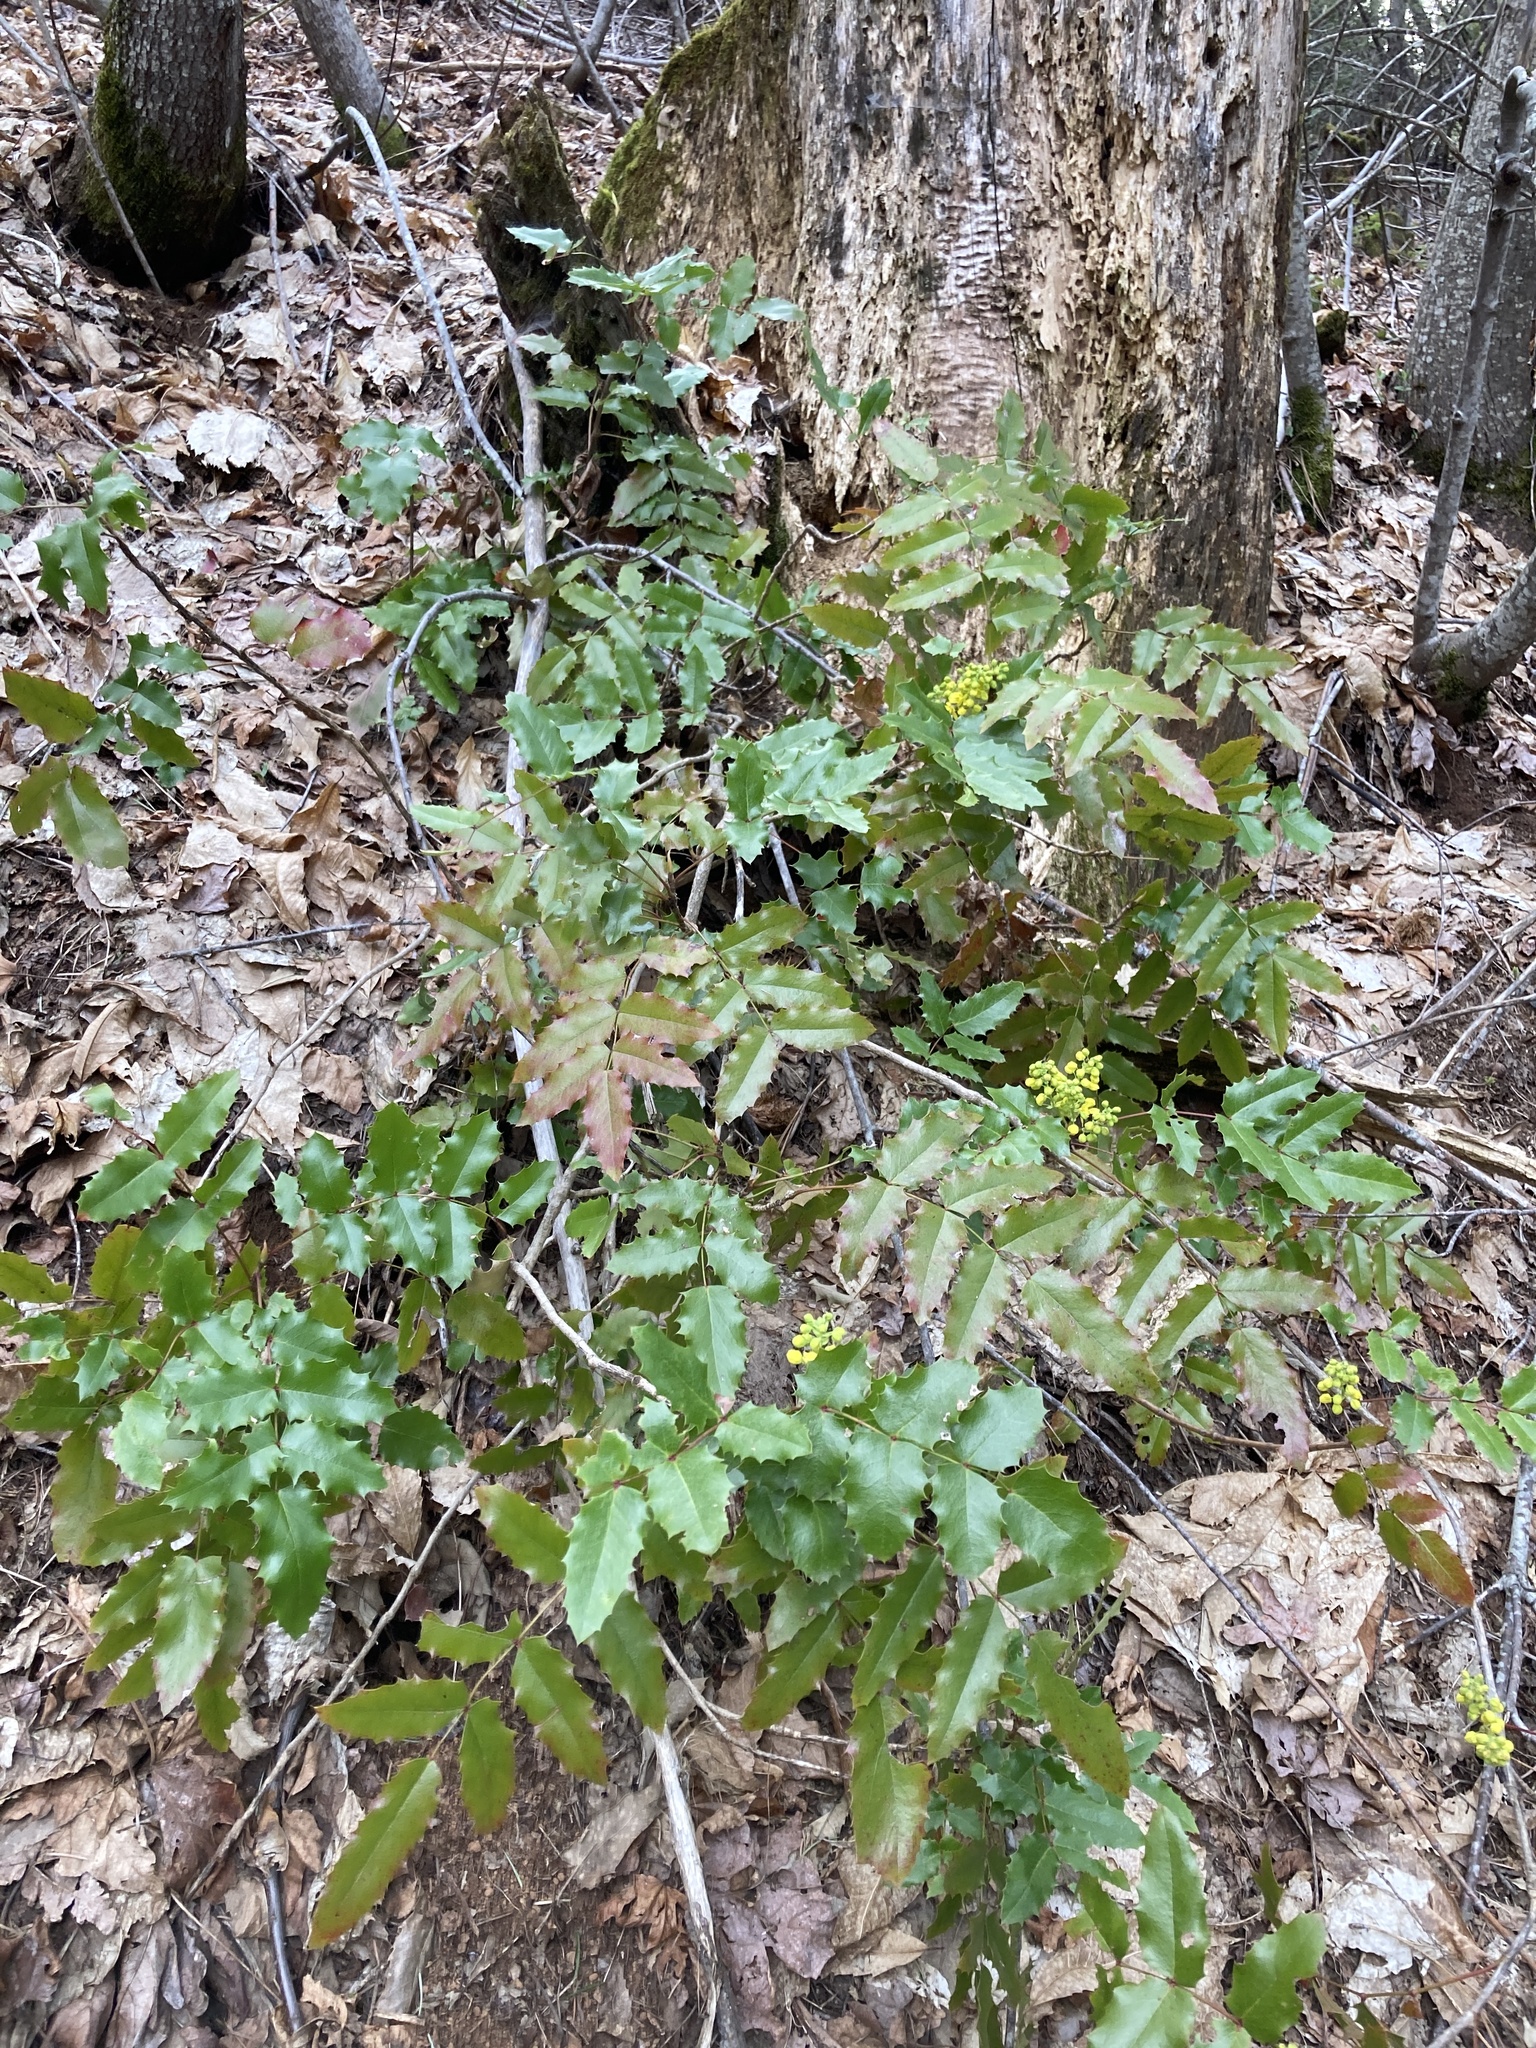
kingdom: Plantae
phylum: Tracheophyta
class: Magnoliopsida
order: Ranunculales
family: Berberidaceae
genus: Mahonia
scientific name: Mahonia aquifolium
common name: Oregon-grape
